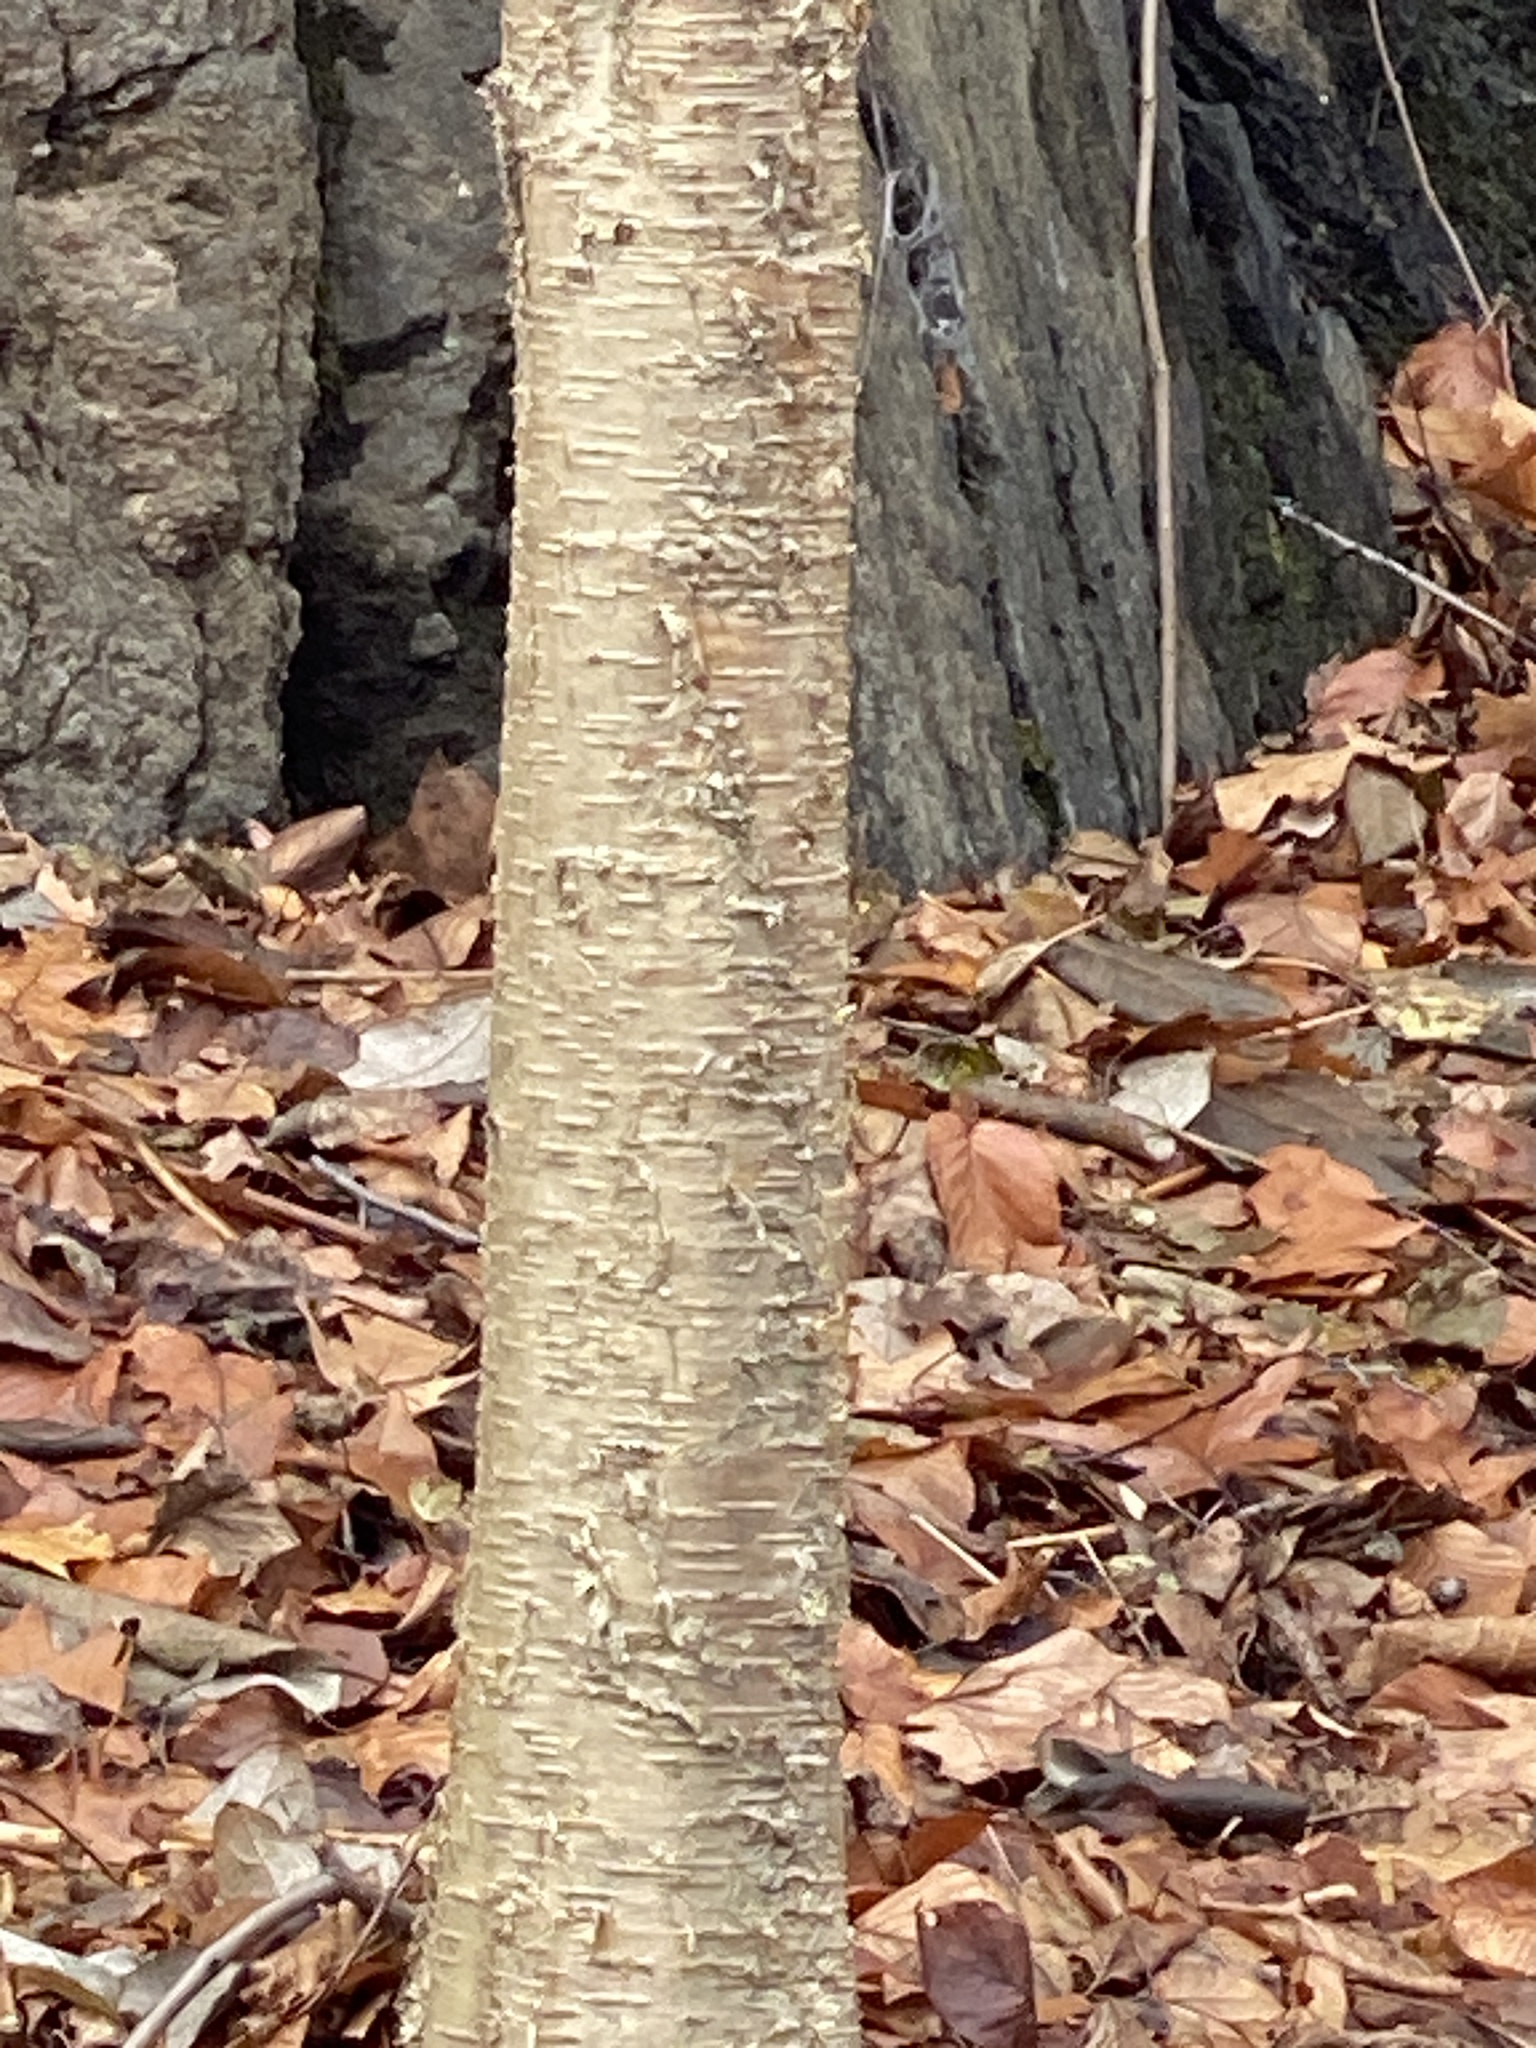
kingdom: Plantae
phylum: Tracheophyta
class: Magnoliopsida
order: Fagales
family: Betulaceae
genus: Betula
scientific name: Betula alleghaniensis
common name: Yellow birch
